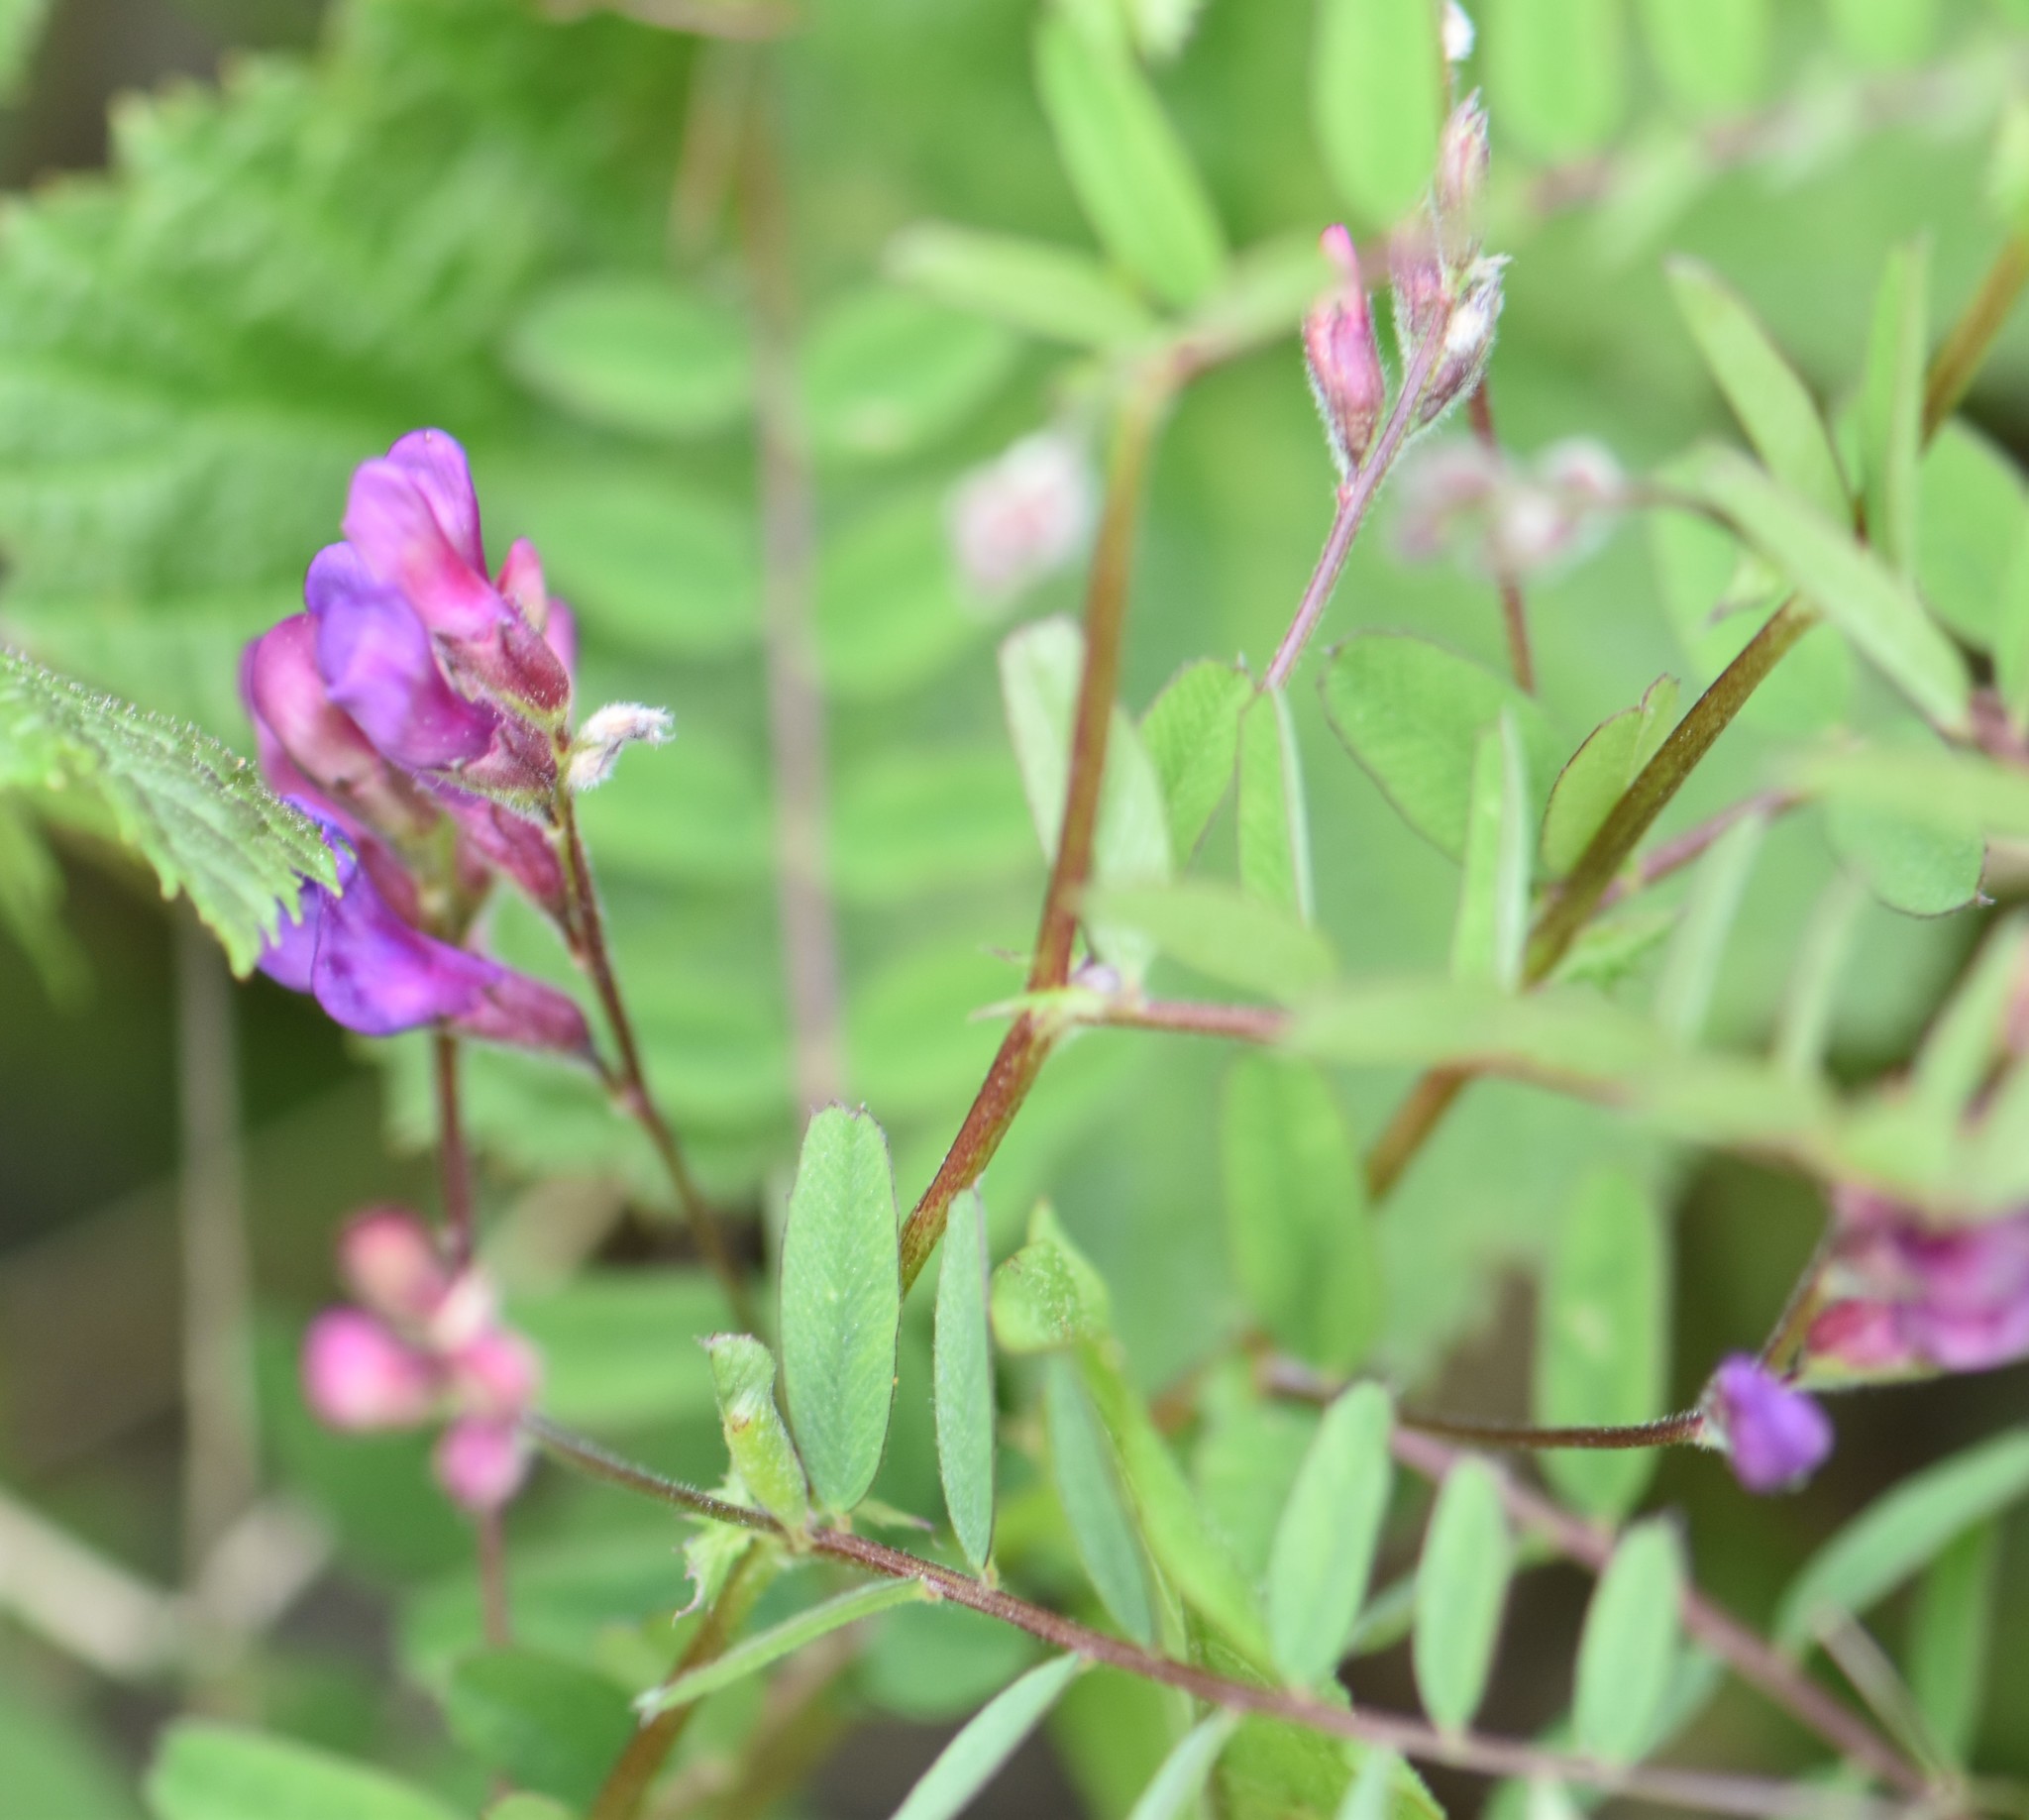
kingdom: Plantae
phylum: Tracheophyta
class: Magnoliopsida
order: Fabales
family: Fabaceae
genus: Vicia
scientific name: Vicia americana
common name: American vetch
